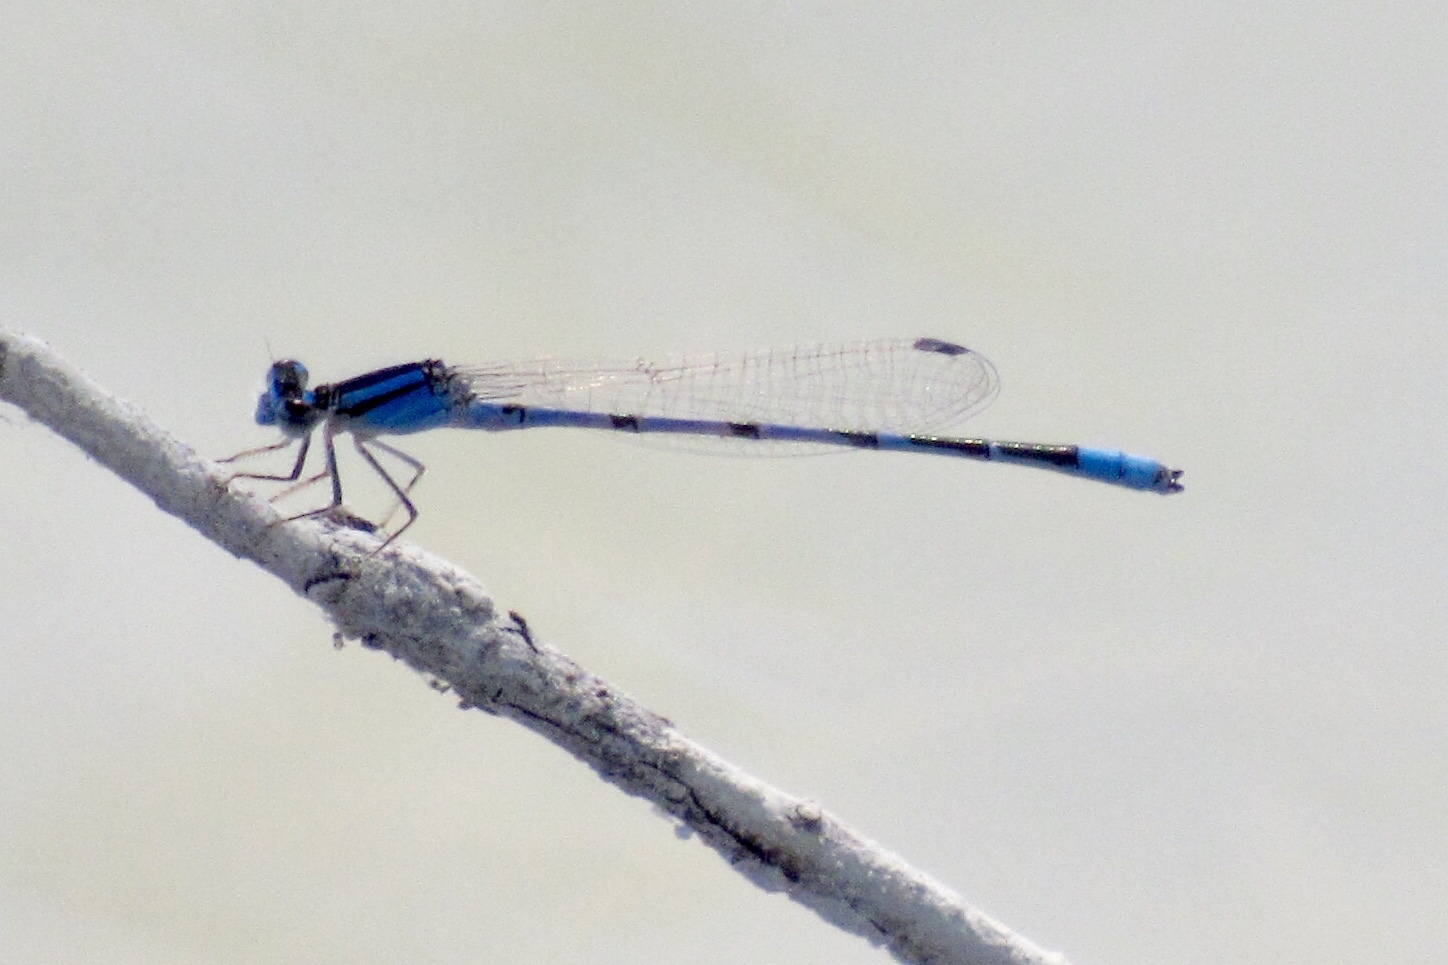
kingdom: Animalia
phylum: Arthropoda
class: Insecta
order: Odonata
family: Coenagrionidae
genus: Enallagma
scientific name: Enallagma civile
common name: Damselfly
